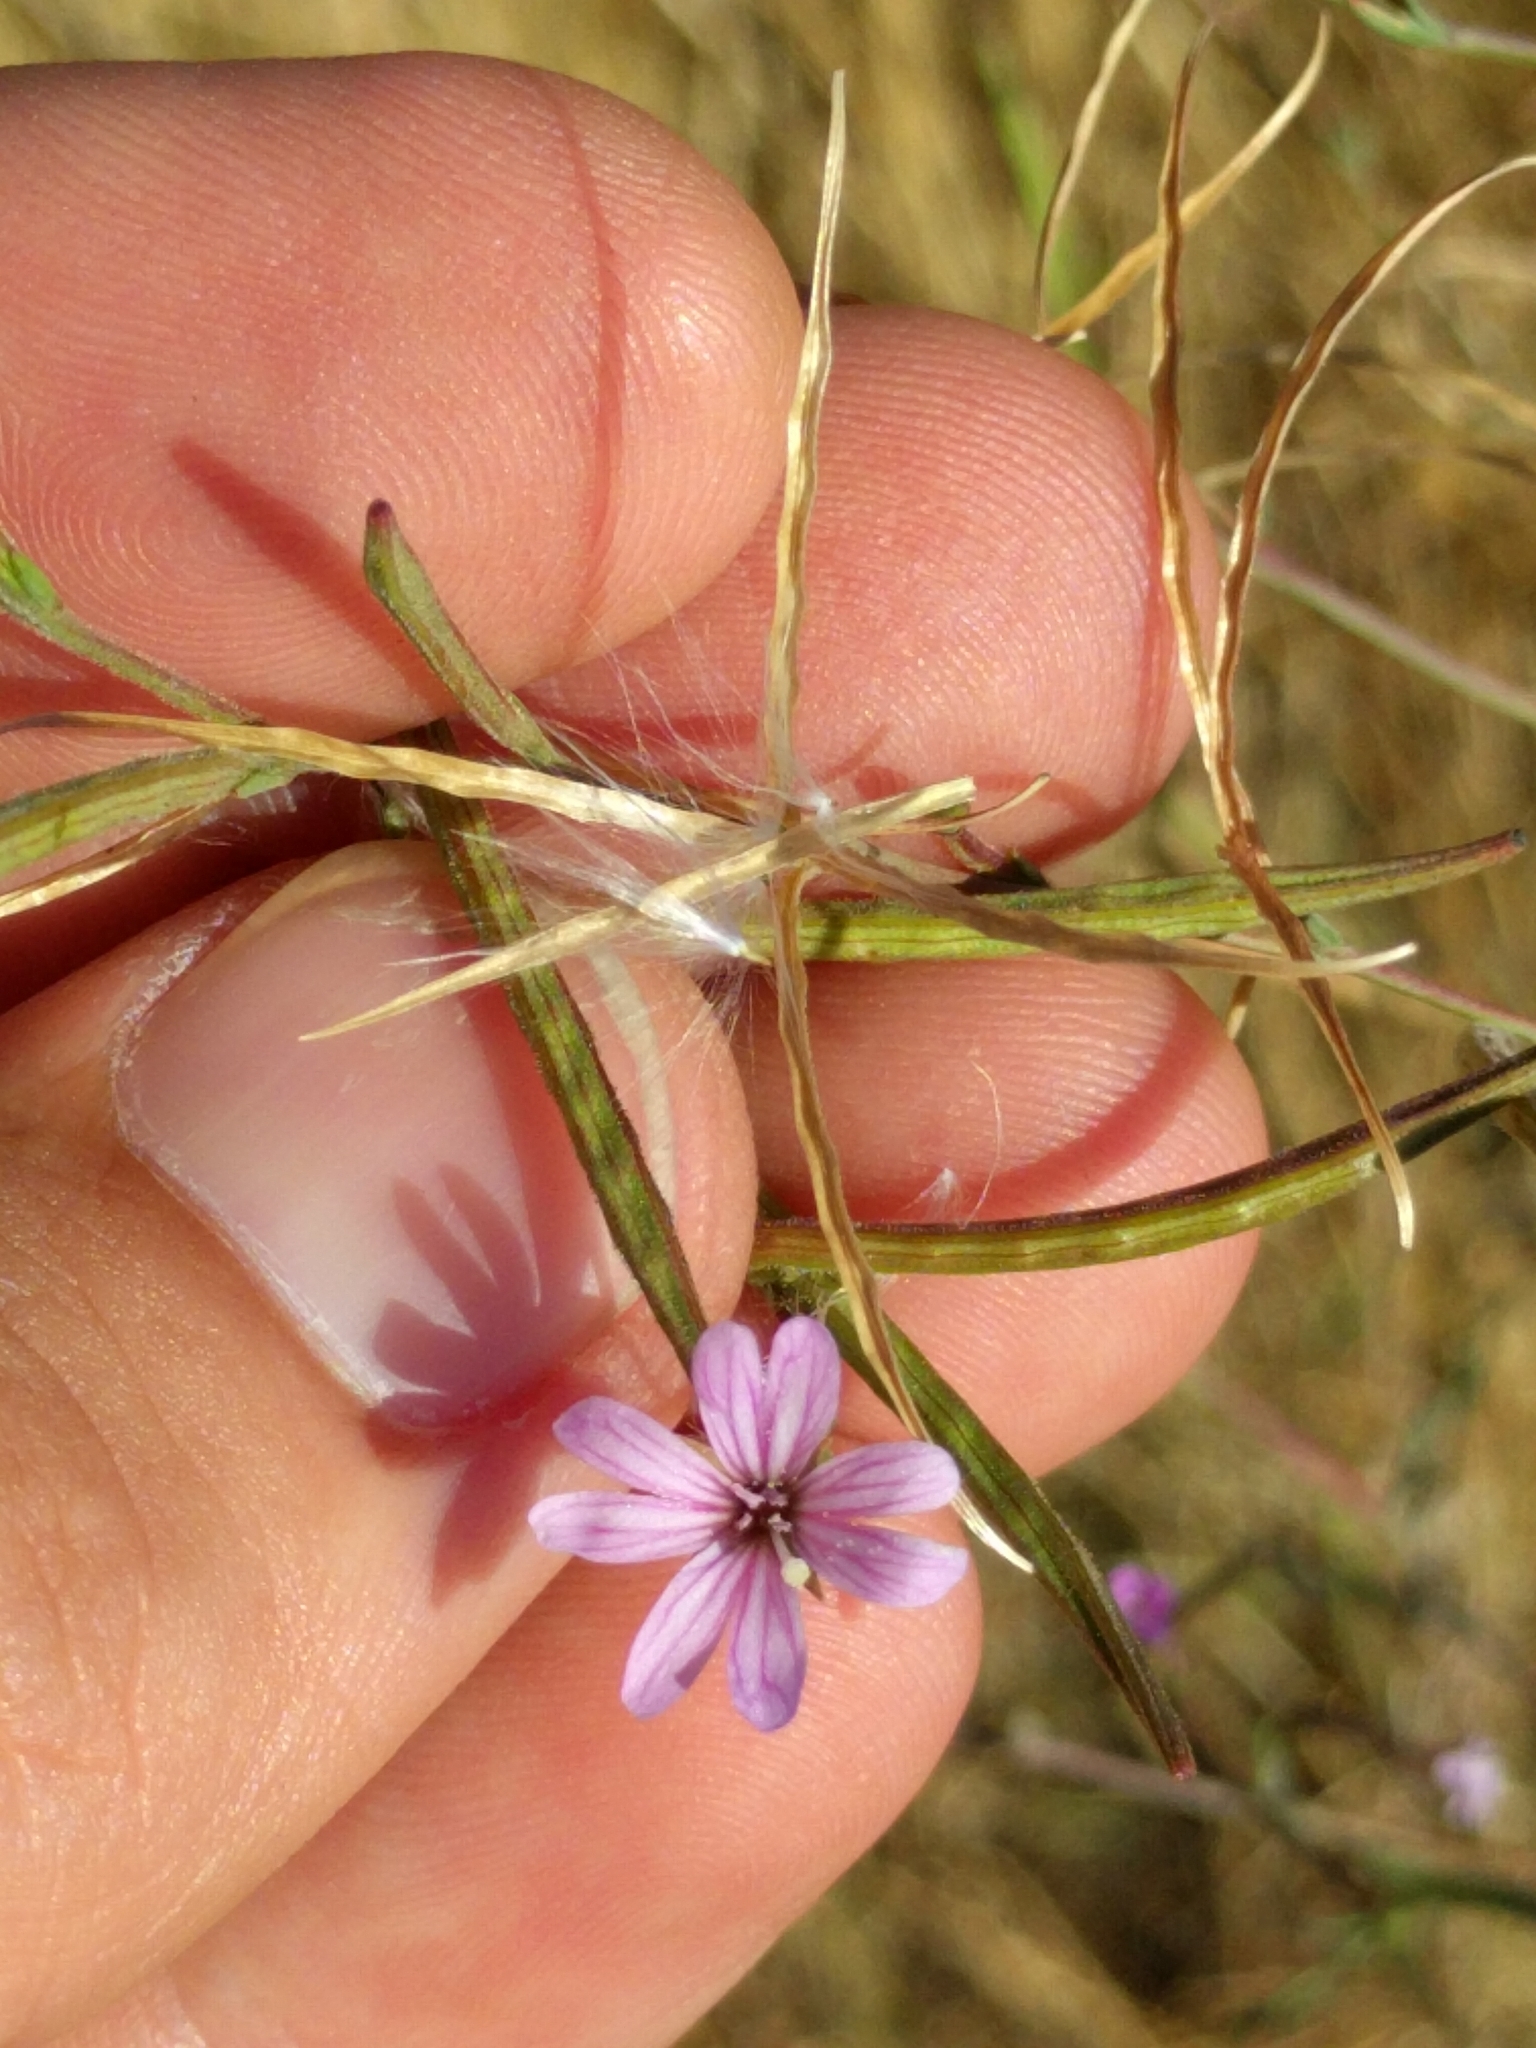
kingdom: Plantae
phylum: Tracheophyta
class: Magnoliopsida
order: Myrtales
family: Onagraceae
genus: Epilobium
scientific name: Epilobium brachycarpum
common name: Annual willowherb
